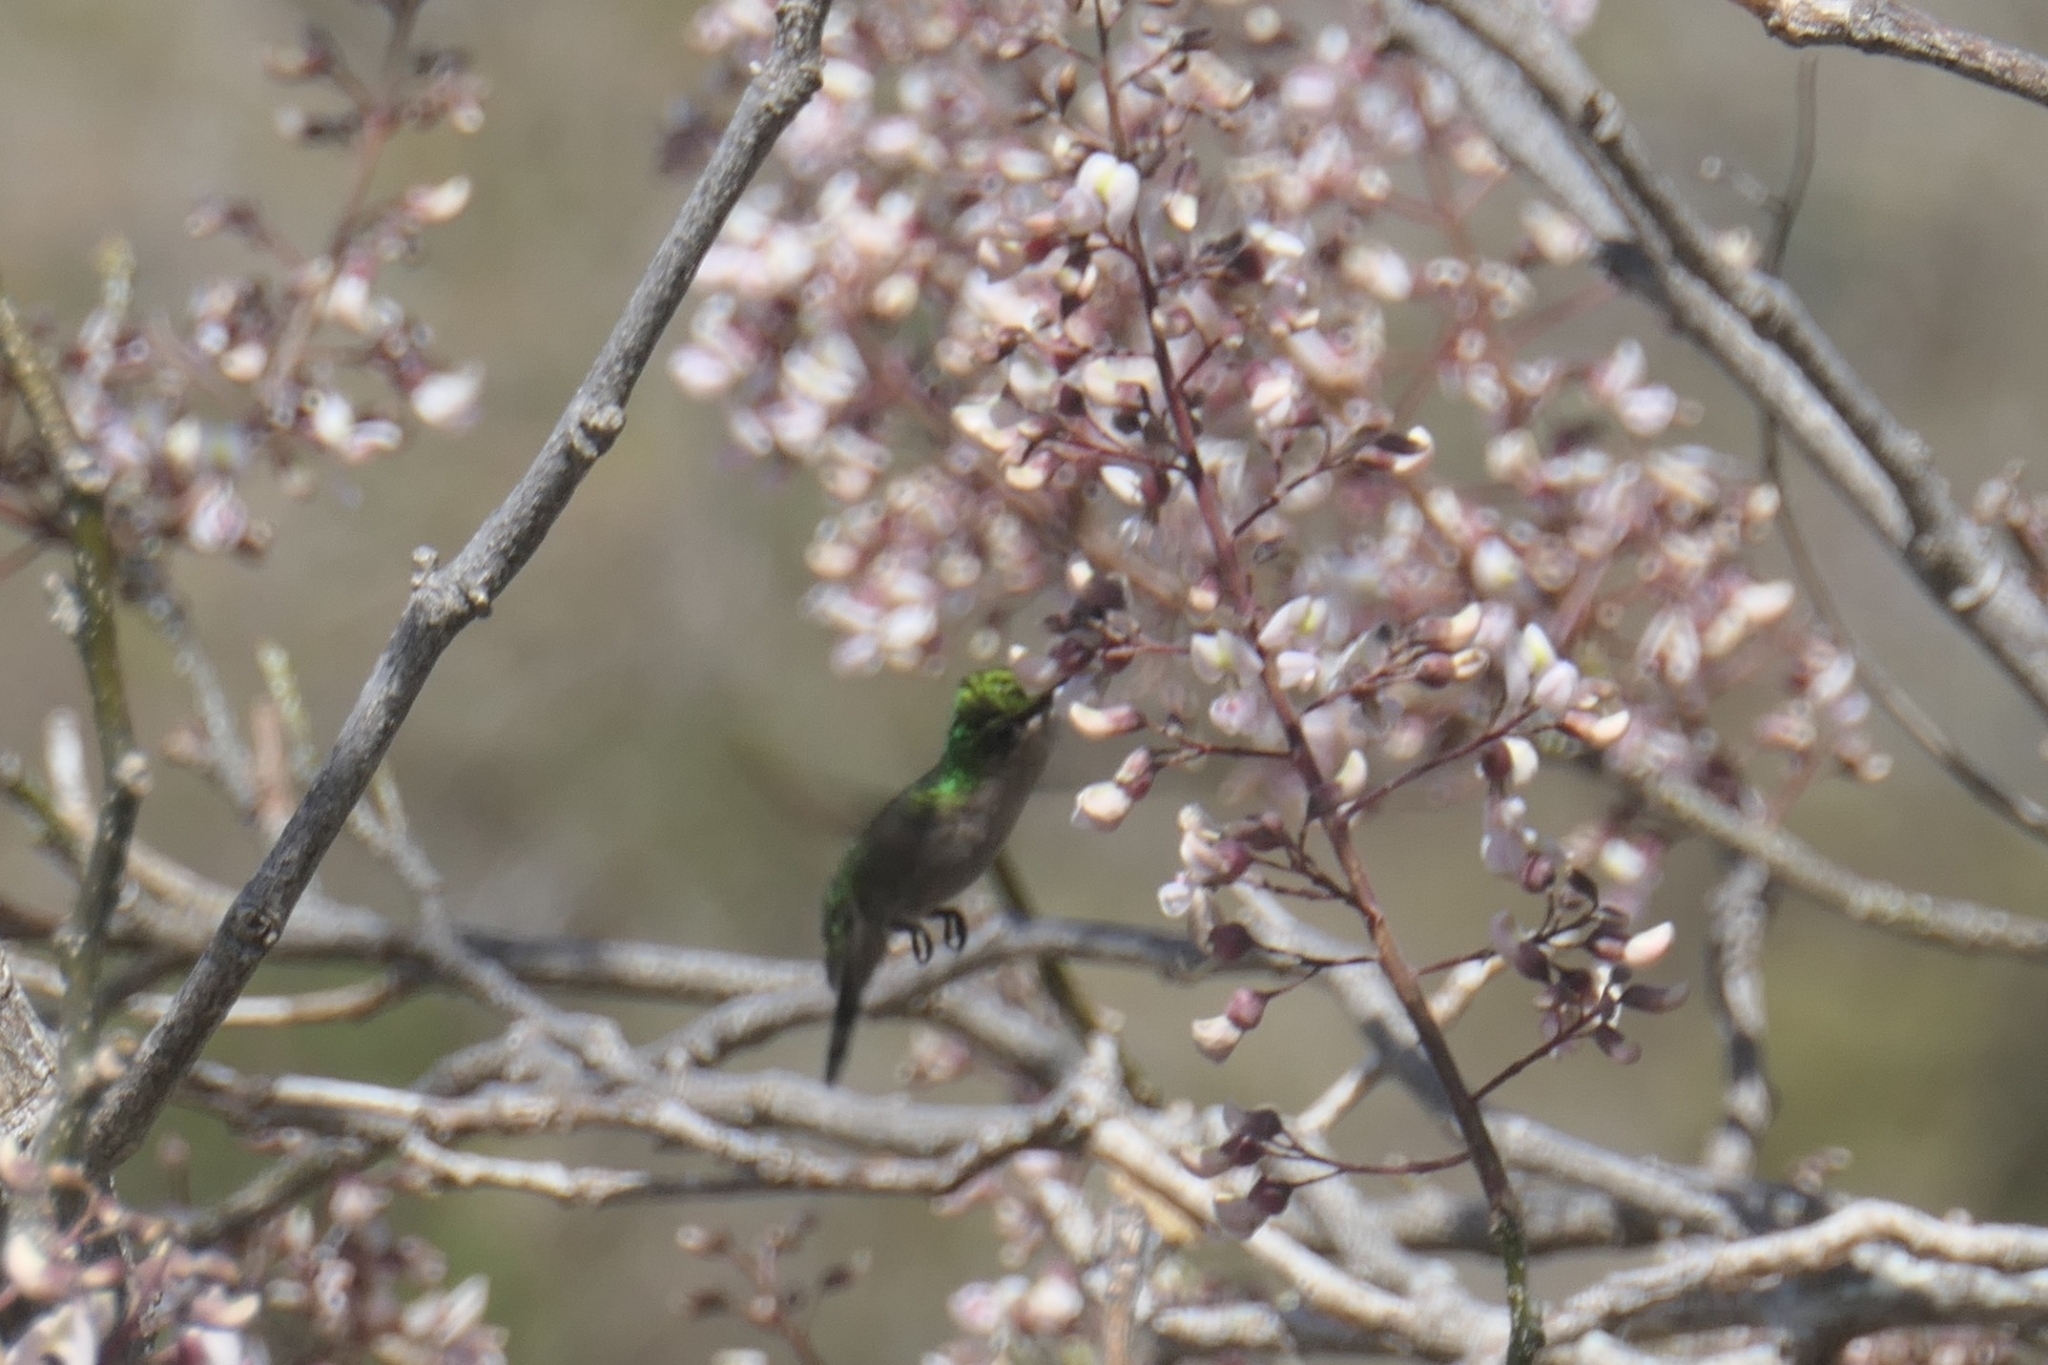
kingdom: Animalia
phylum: Chordata
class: Aves
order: Apodiformes
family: Trochilidae
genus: Orthorhyncus
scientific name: Orthorhyncus cristatus
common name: Antillean crested hummingbird
